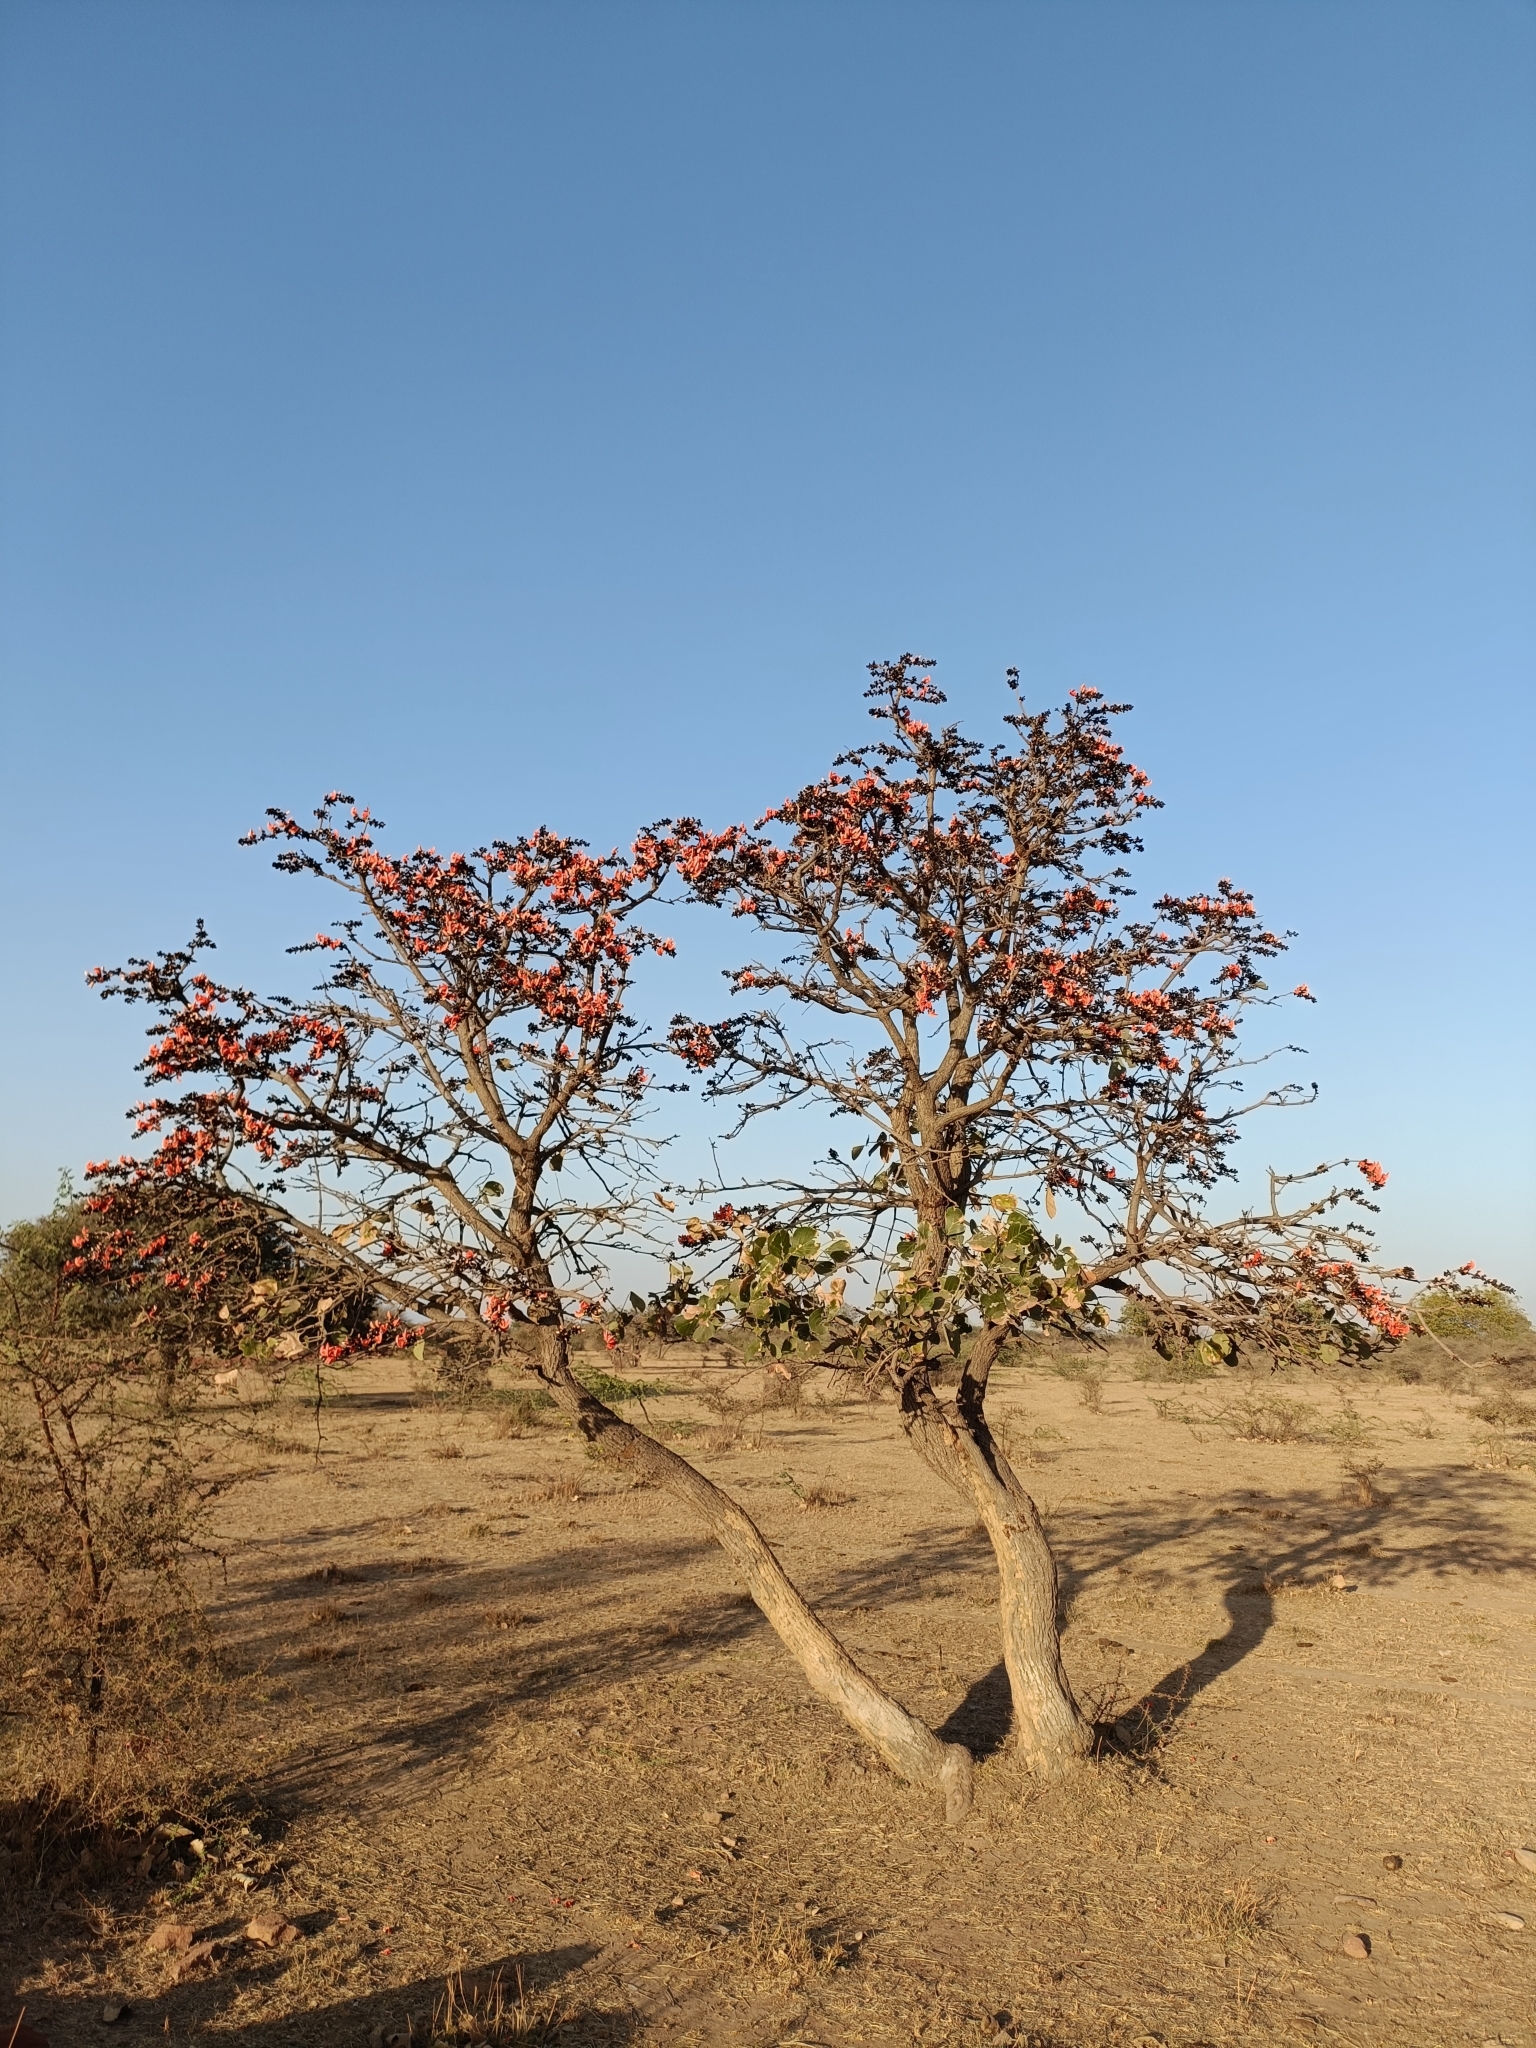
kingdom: Plantae
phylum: Tracheophyta
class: Magnoliopsida
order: Fabales
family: Fabaceae
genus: Butea
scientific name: Butea monosperma
